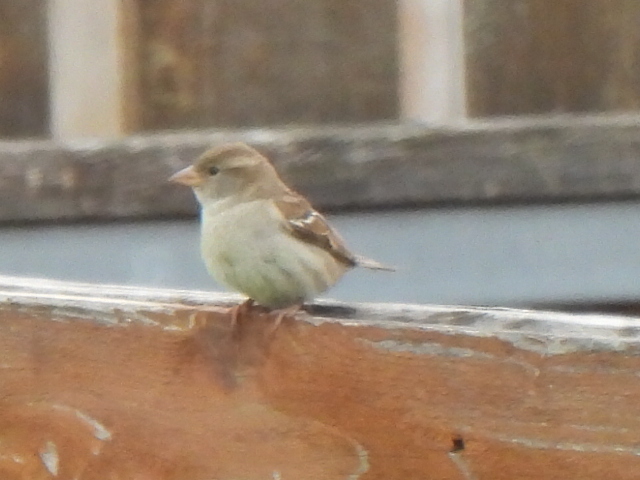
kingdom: Animalia
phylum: Chordata
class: Aves
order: Passeriformes
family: Passeridae
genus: Passer
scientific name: Passer domesticus
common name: House sparrow
